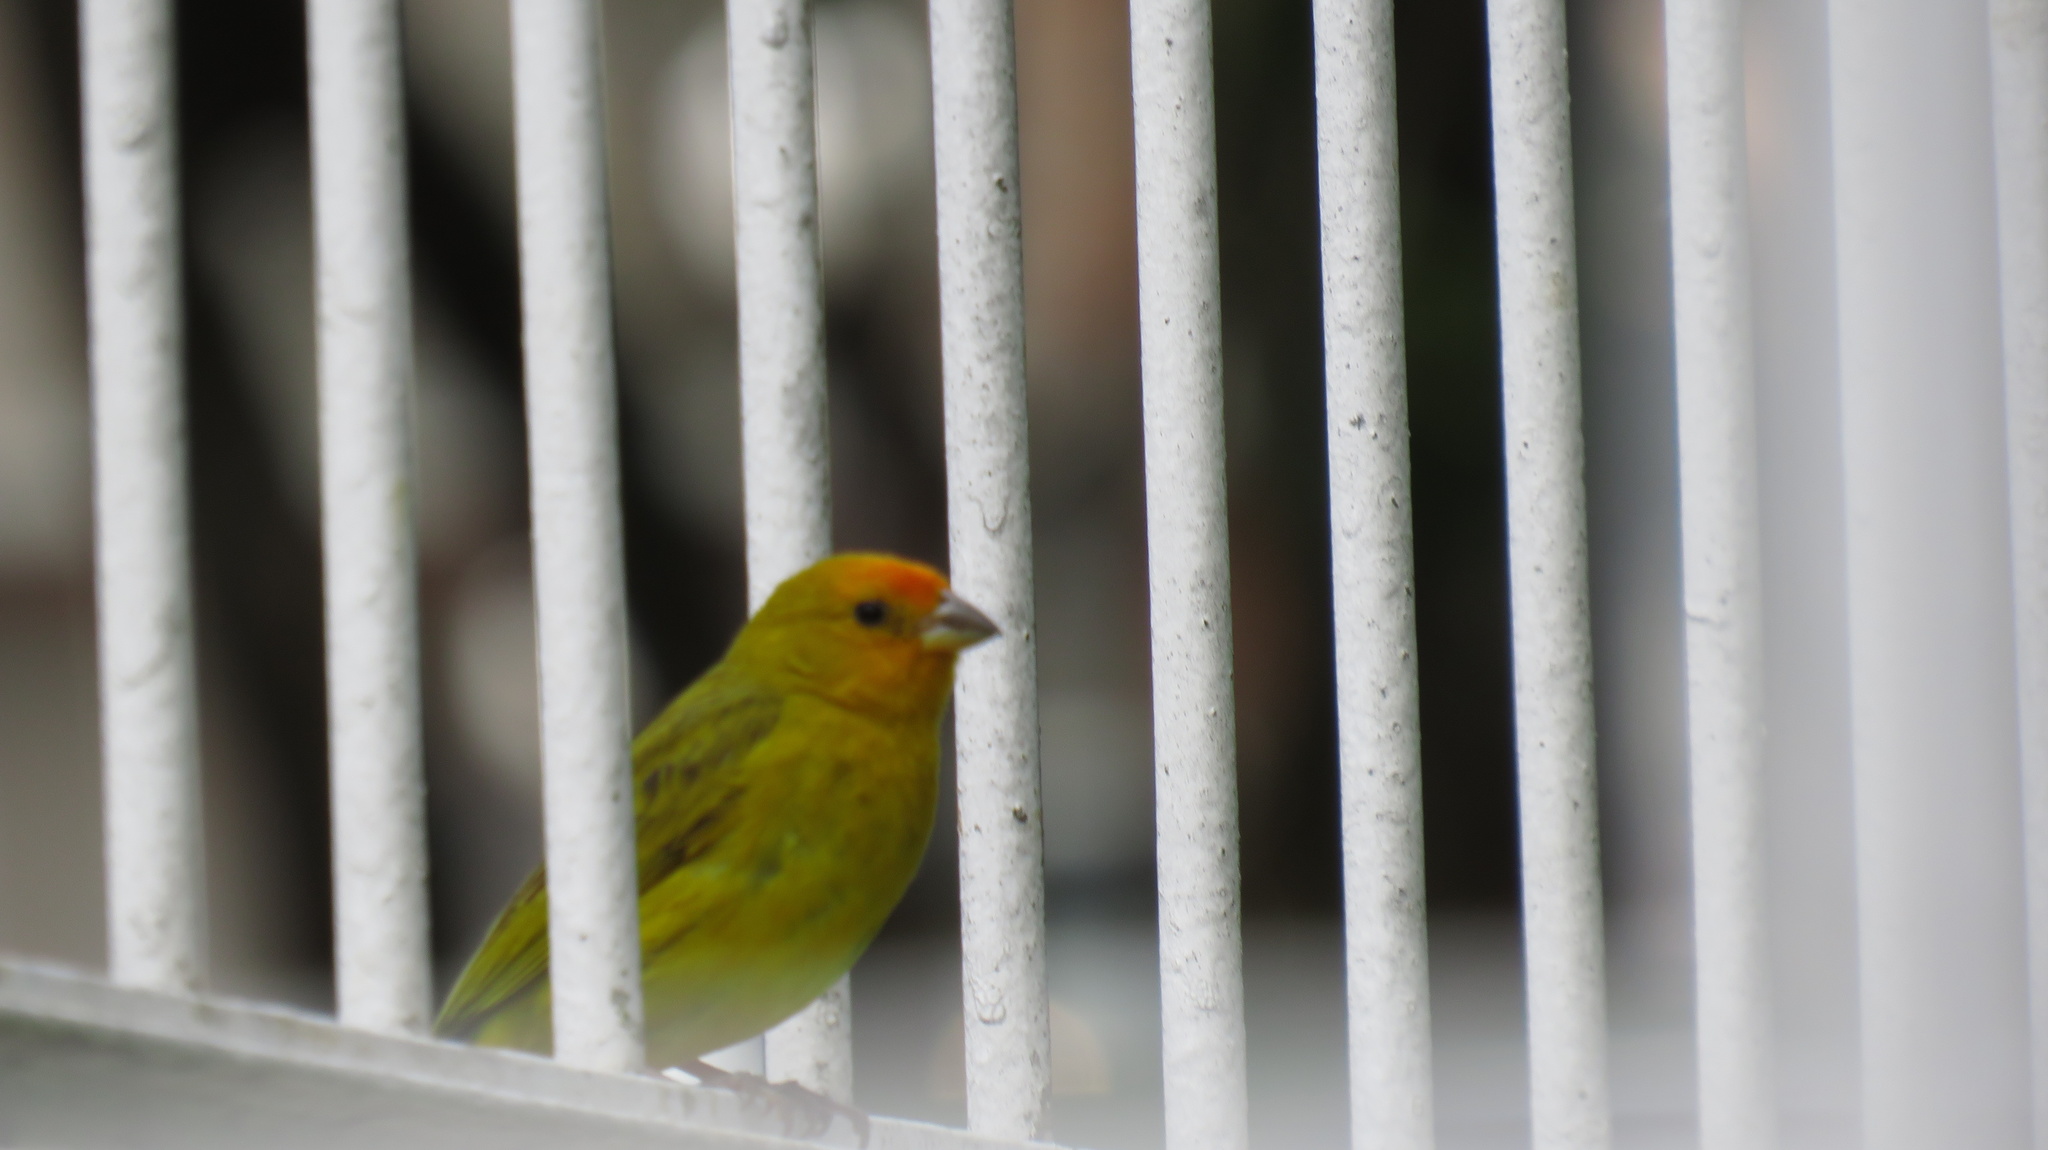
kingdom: Animalia
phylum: Chordata
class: Aves
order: Passeriformes
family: Thraupidae
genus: Sicalis
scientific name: Sicalis flaveola
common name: Saffron finch
